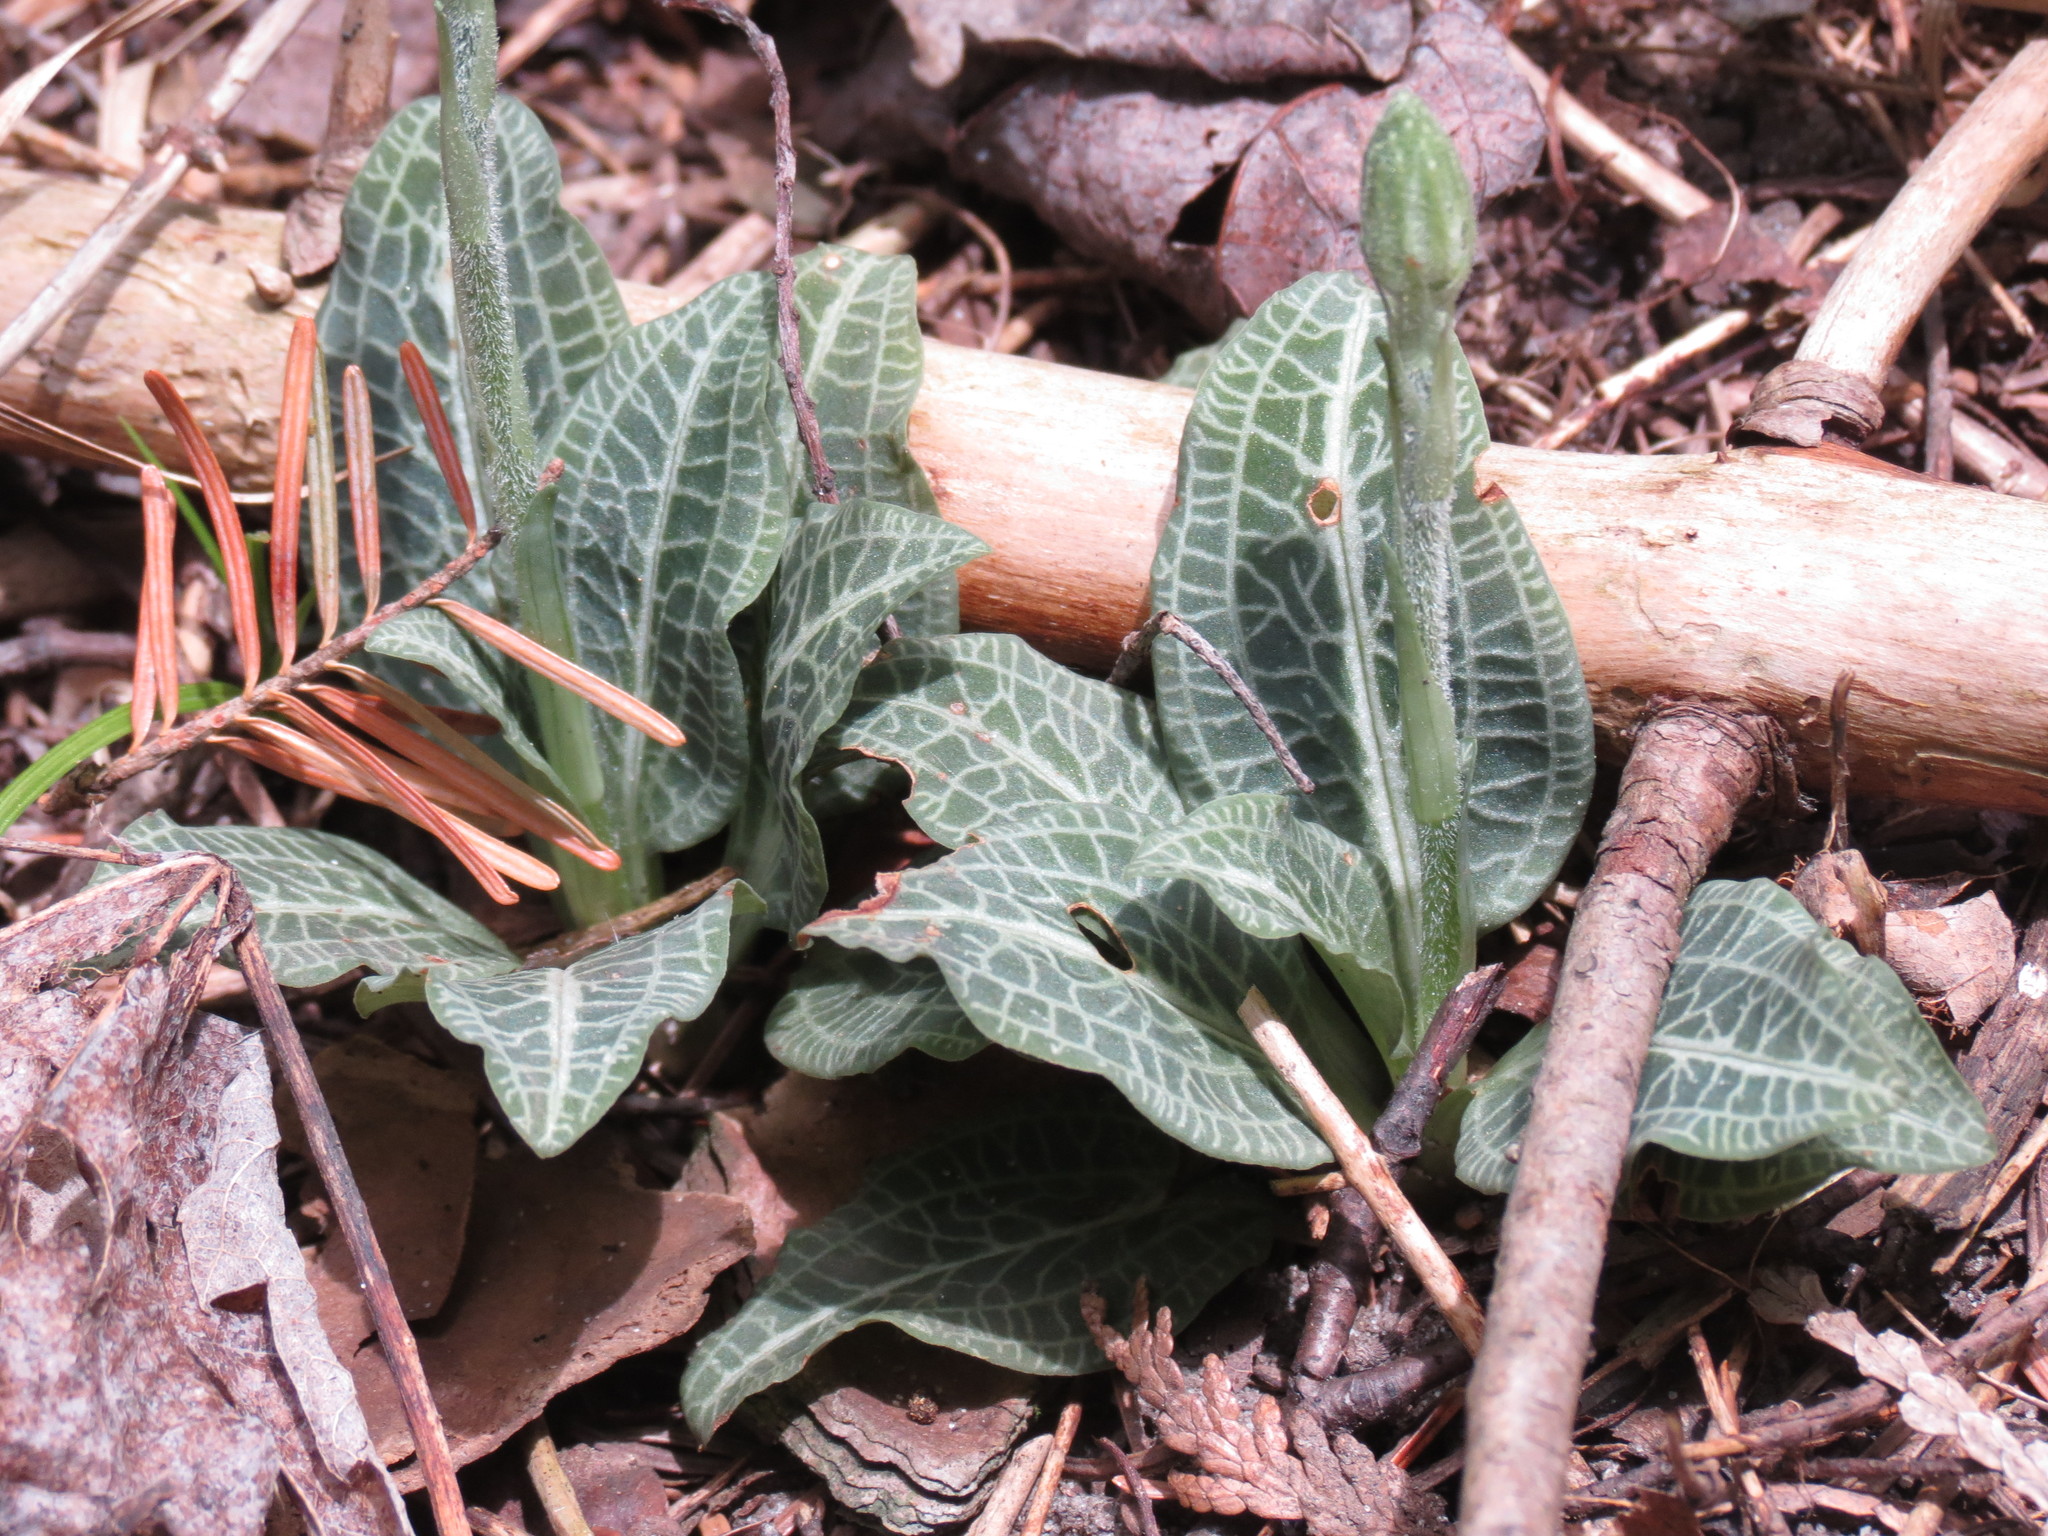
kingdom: Plantae
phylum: Tracheophyta
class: Liliopsida
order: Asparagales
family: Orchidaceae
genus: Goodyera
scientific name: Goodyera pubescens
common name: Downy rattlesnake-plantain
